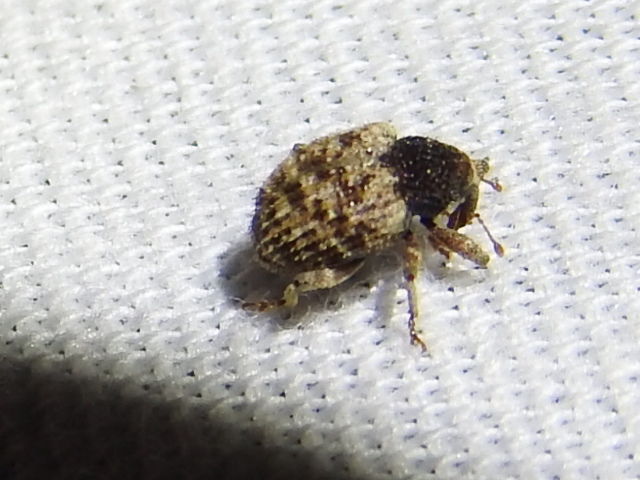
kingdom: Animalia
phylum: Arthropoda
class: Insecta
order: Coleoptera
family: Curculionidae
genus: Pheloconus
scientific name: Pheloconus cribricollis
